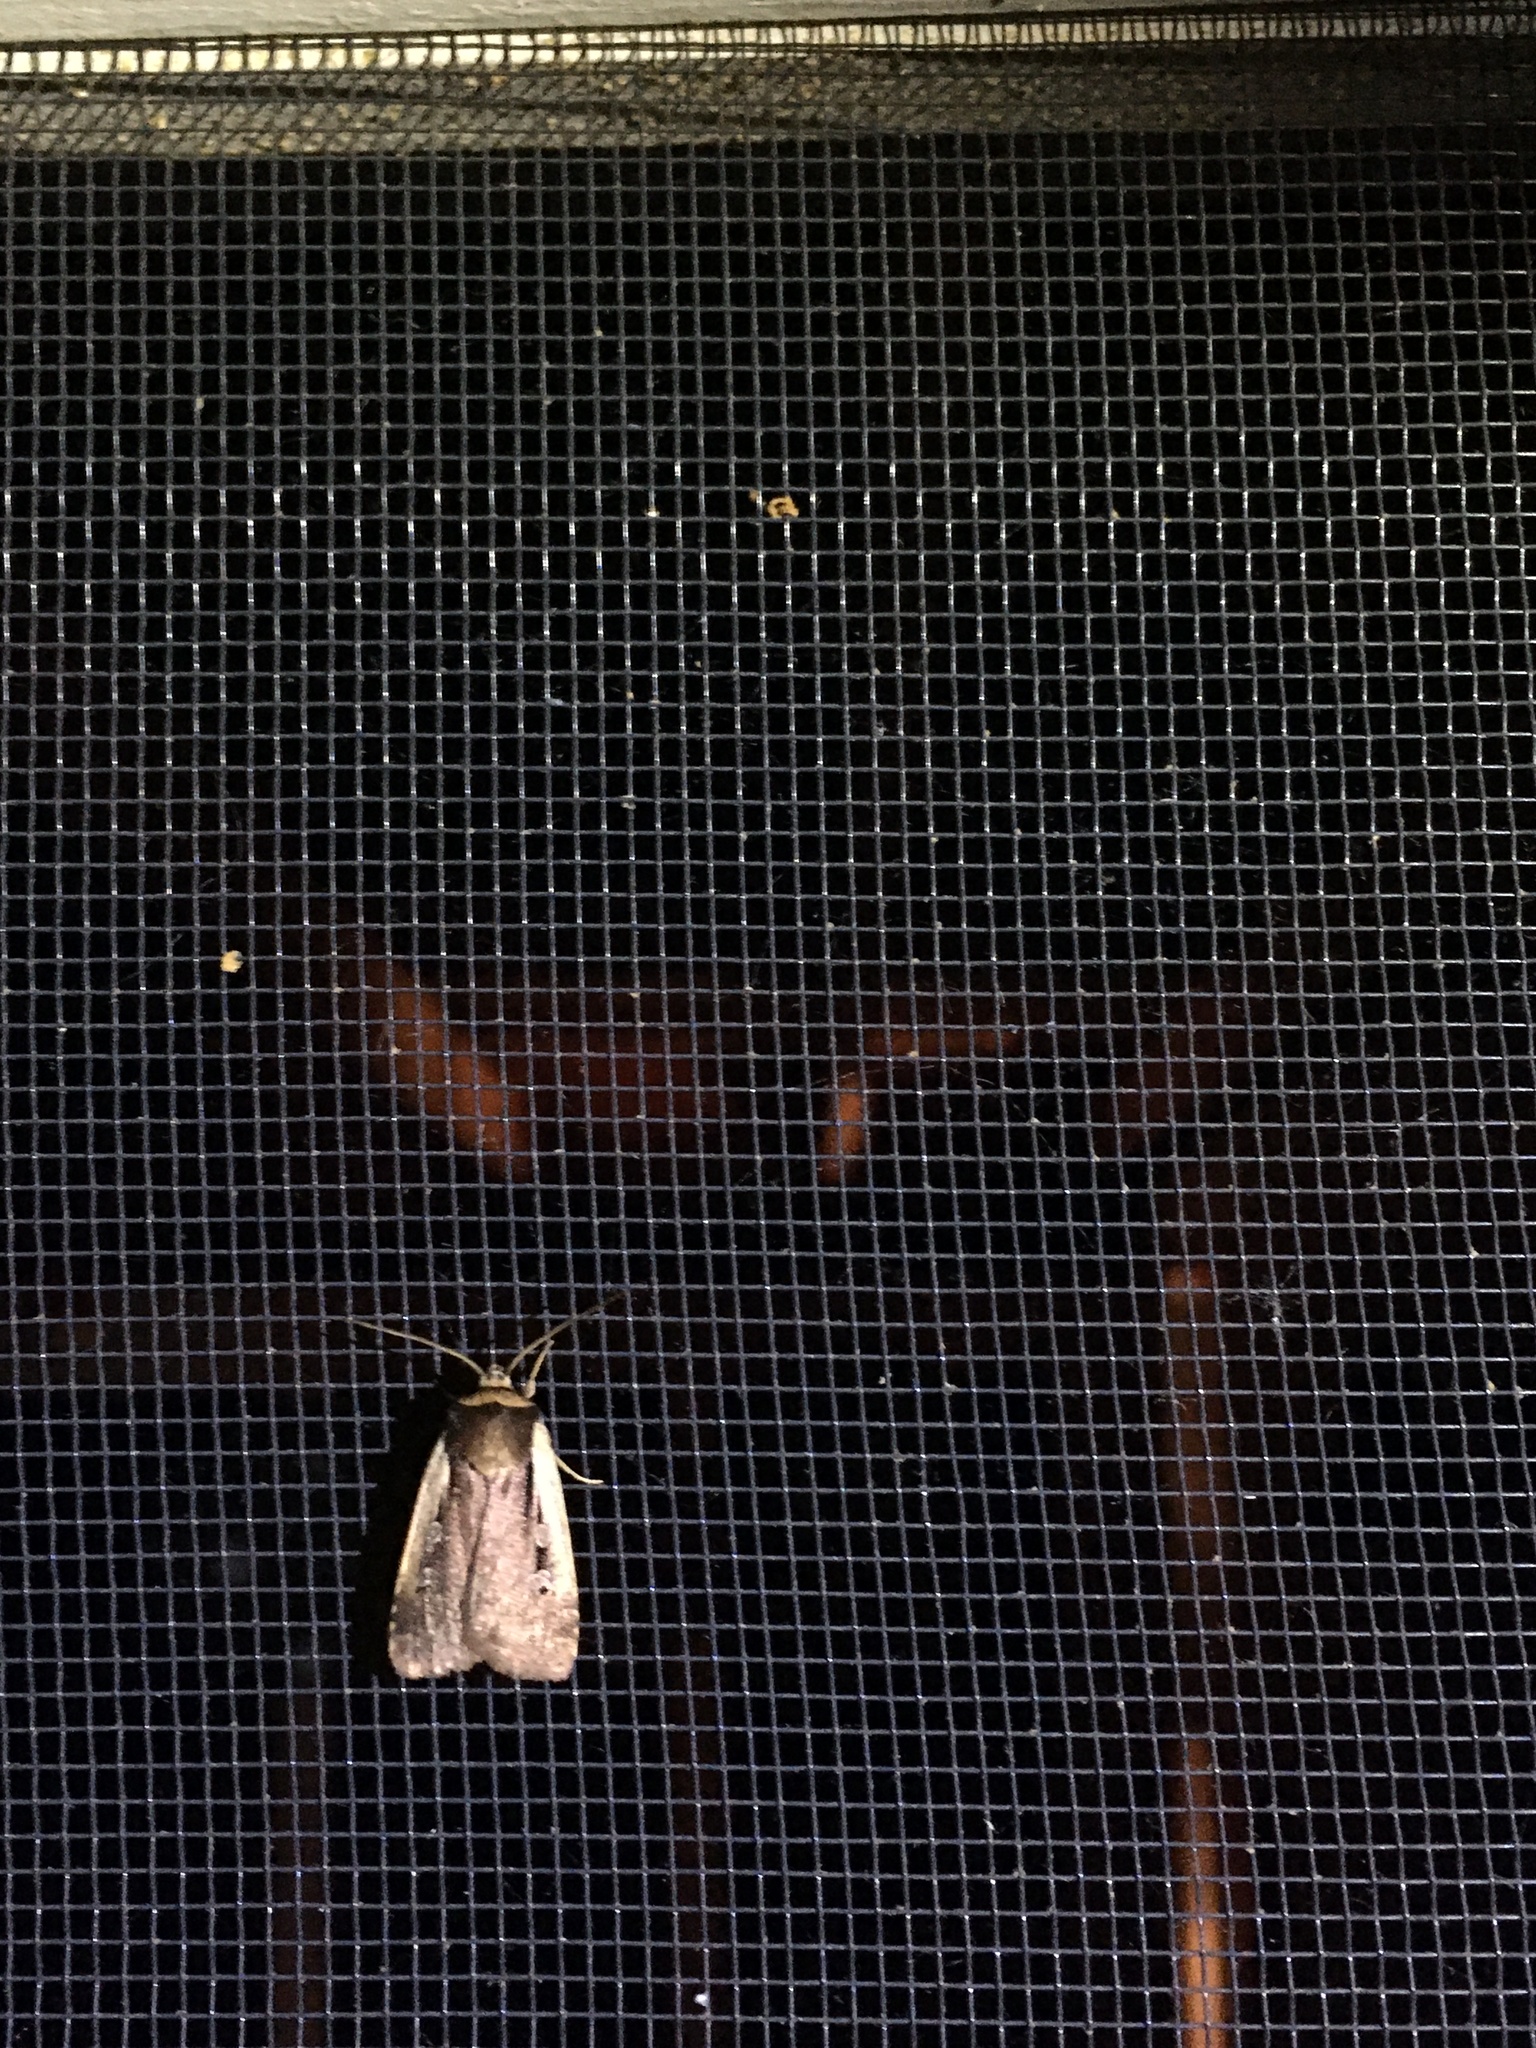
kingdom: Animalia
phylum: Arthropoda
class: Insecta
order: Lepidoptera
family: Noctuidae
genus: Ochropleura
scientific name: Ochropleura implecta
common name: Flame-shouldered dart
